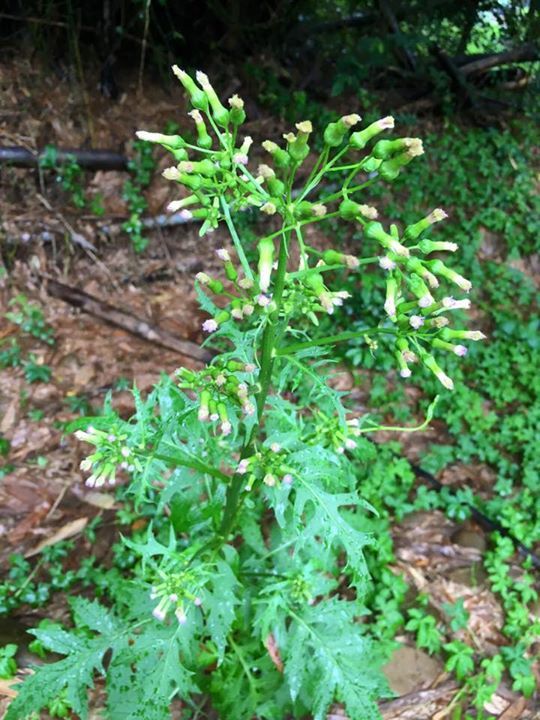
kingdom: Plantae
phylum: Tracheophyta
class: Magnoliopsida
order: Asterales
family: Asteraceae
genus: Erechtites
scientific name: Erechtites valerianifolius
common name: Tropical burnweed
